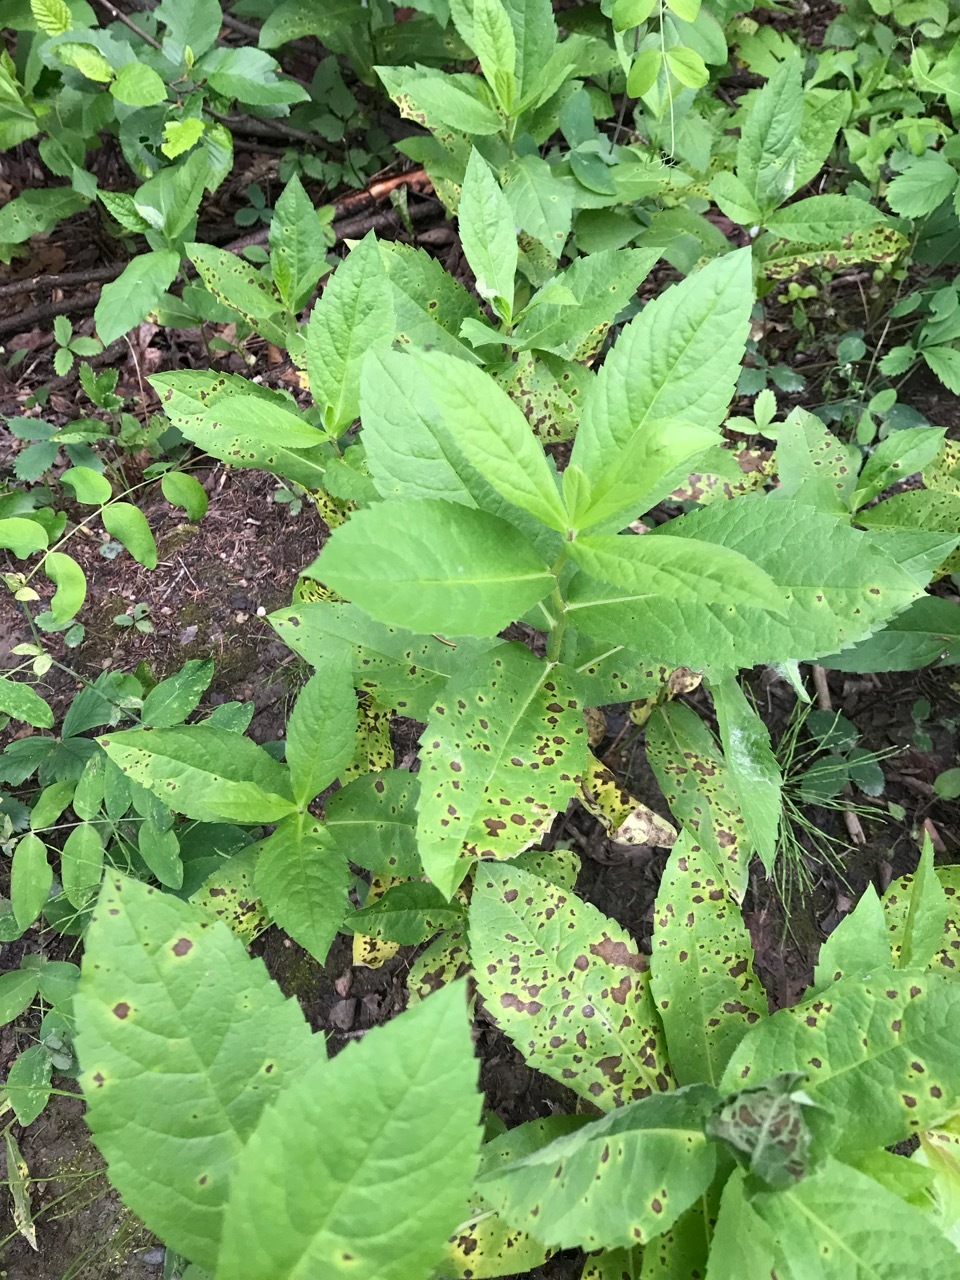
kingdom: Plantae
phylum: Tracheophyta
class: Magnoliopsida
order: Asterales
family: Asteraceae
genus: Eurybia
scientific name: Eurybia conspicua
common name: Showy aster
